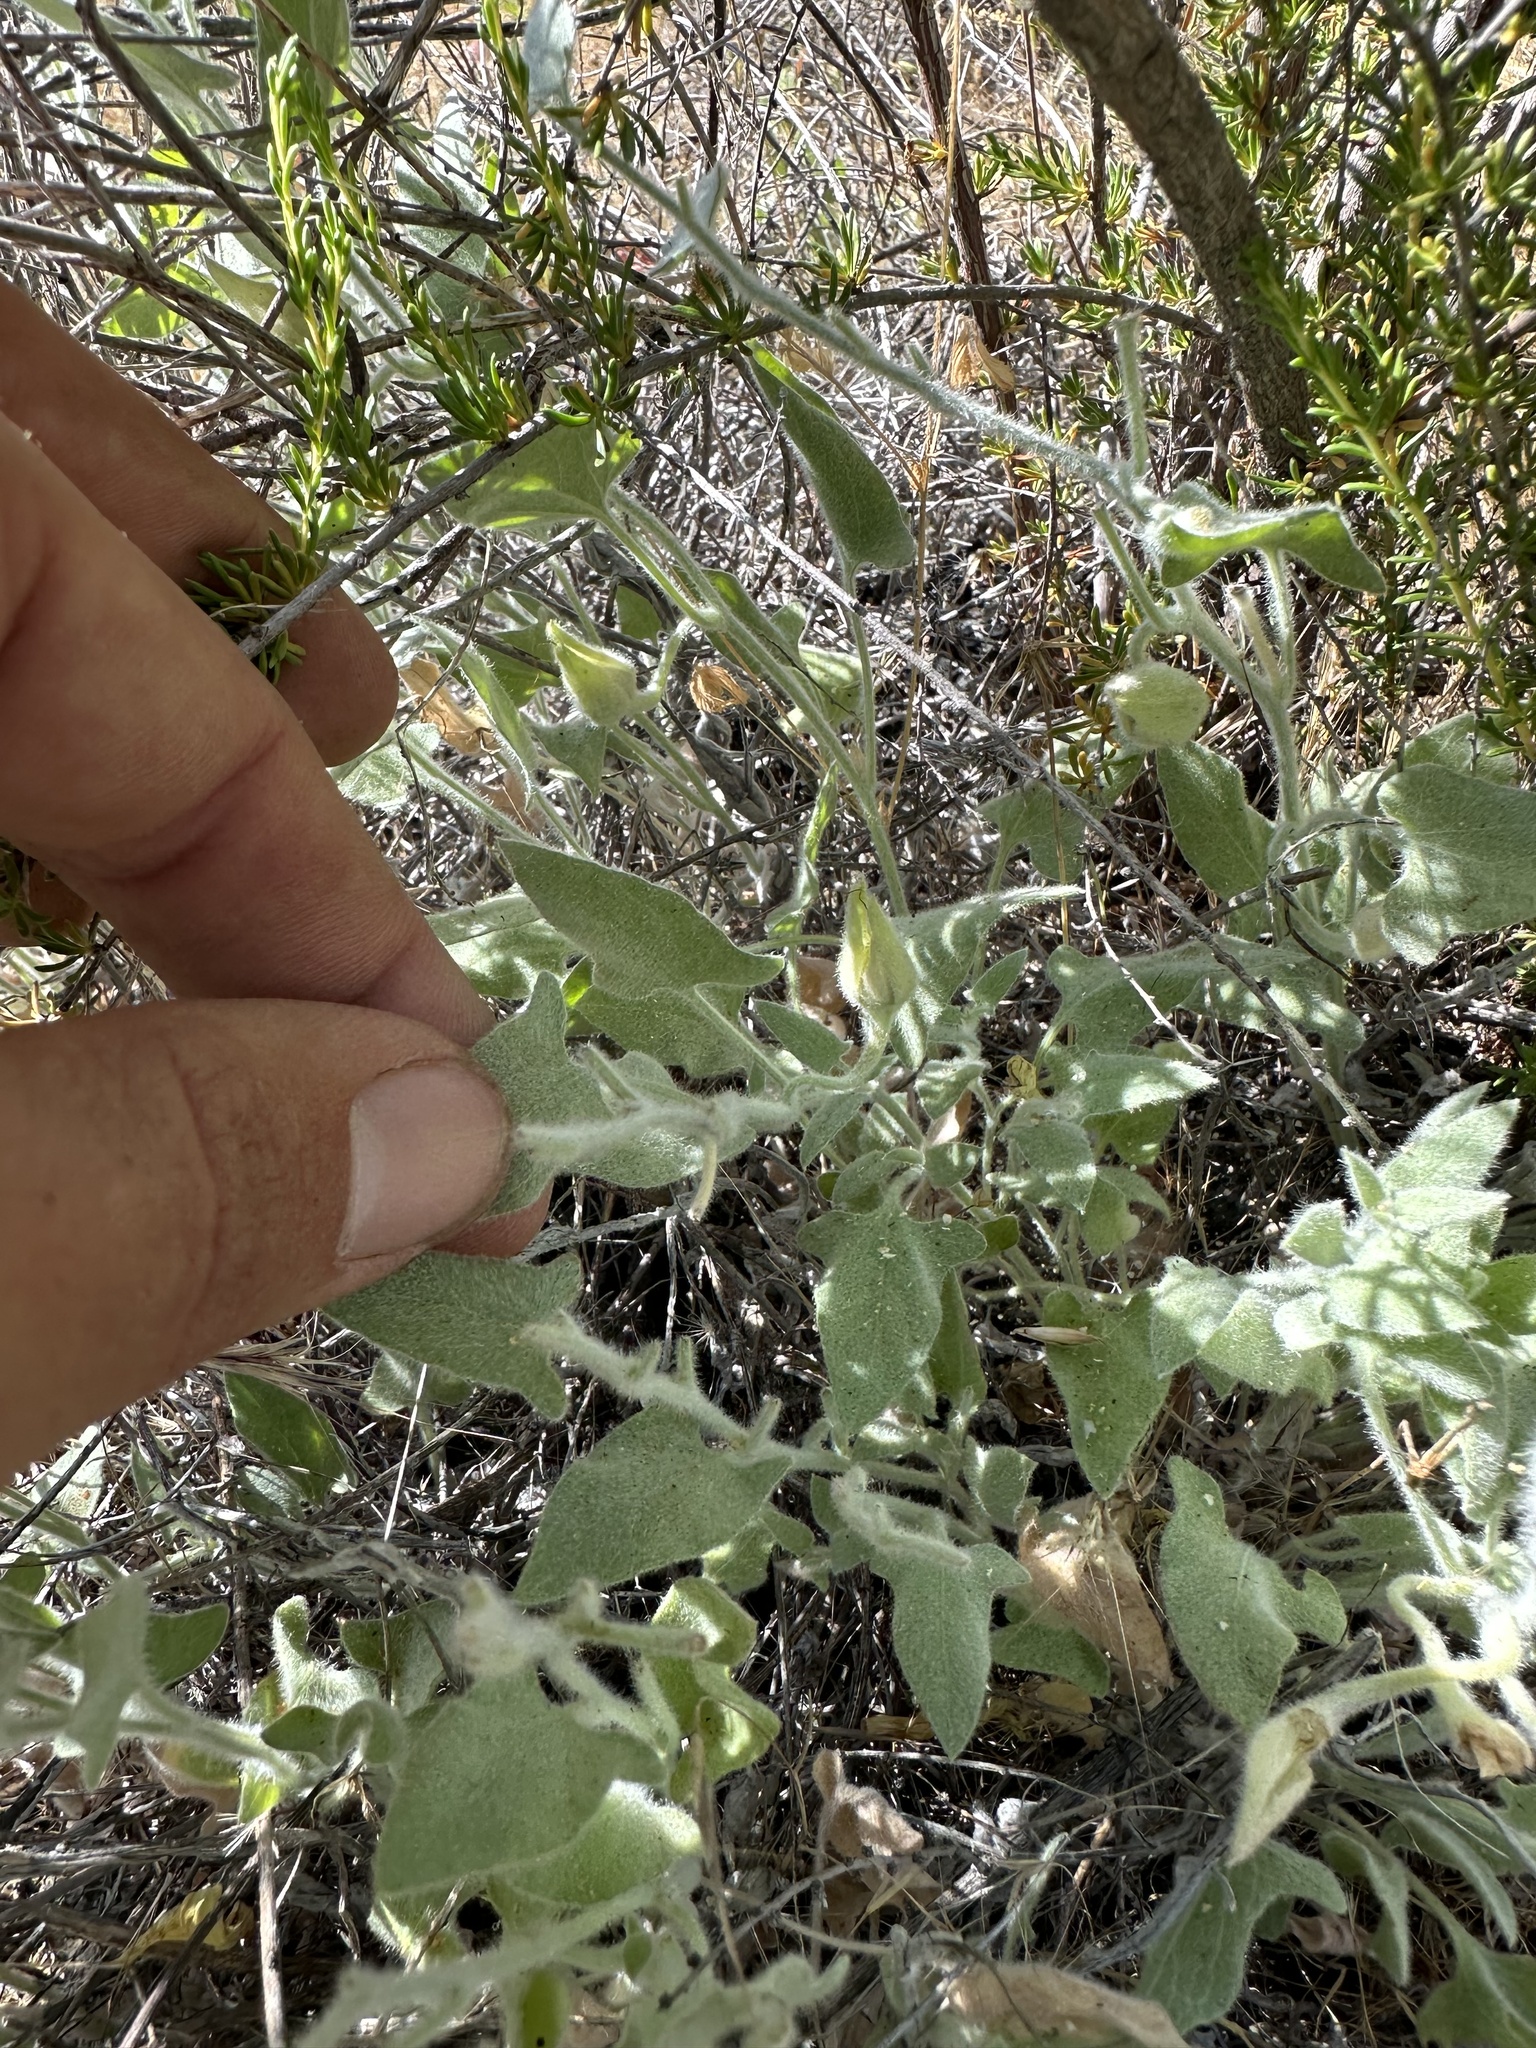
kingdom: Plantae
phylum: Tracheophyta
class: Magnoliopsida
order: Solanales
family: Convolvulaceae
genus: Calystegia
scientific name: Calystegia malacophylla
